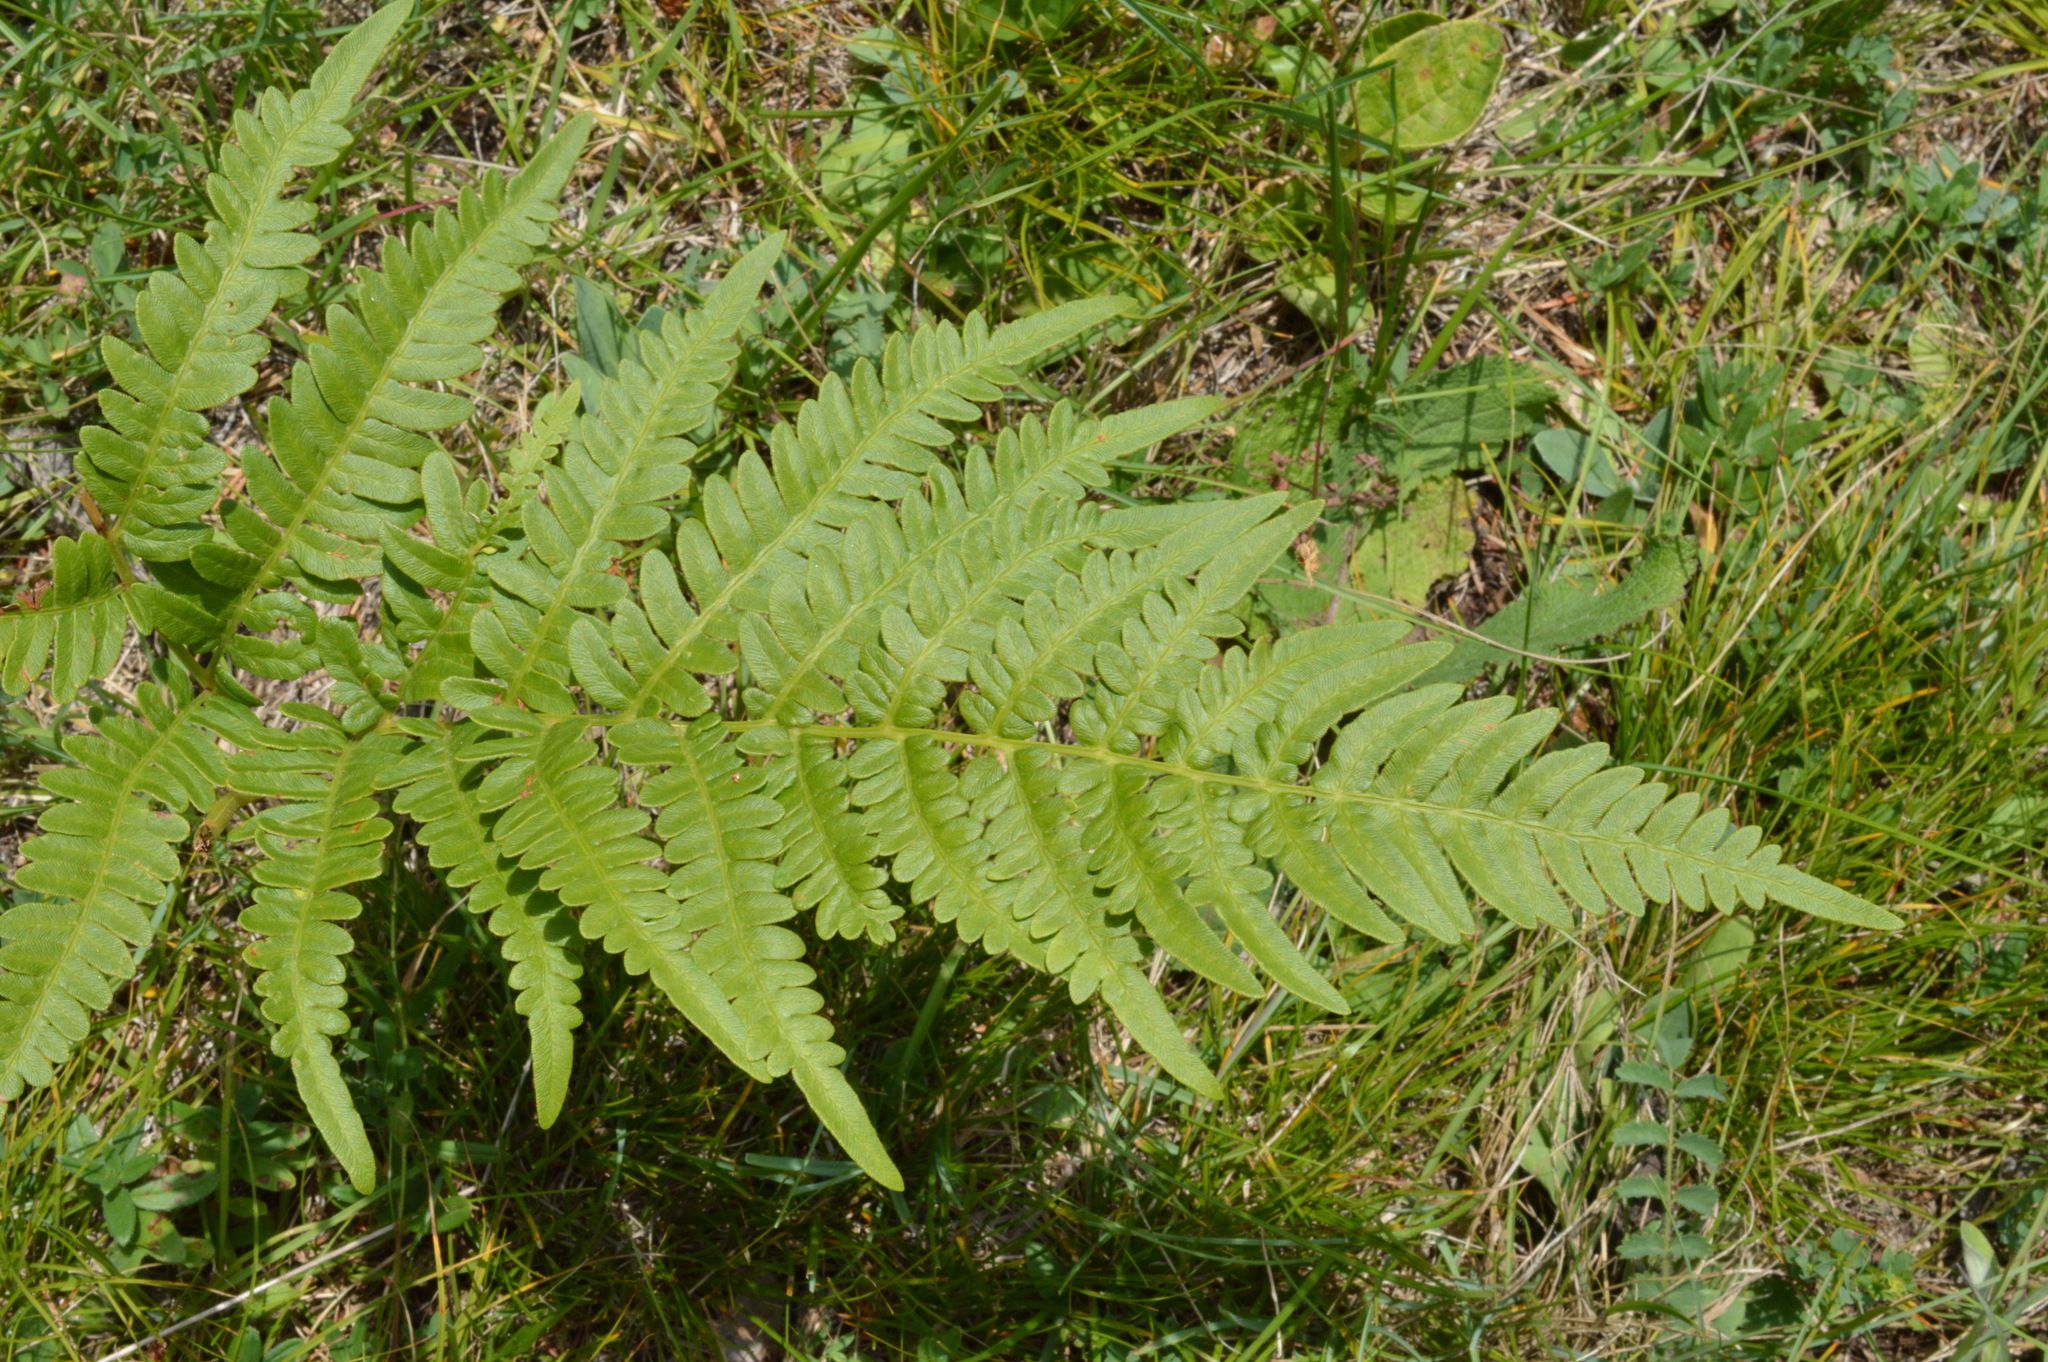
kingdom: Plantae
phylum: Tracheophyta
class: Polypodiopsida
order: Polypodiales
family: Dennstaedtiaceae
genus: Pteridium
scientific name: Pteridium aquilinum
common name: Bracken
